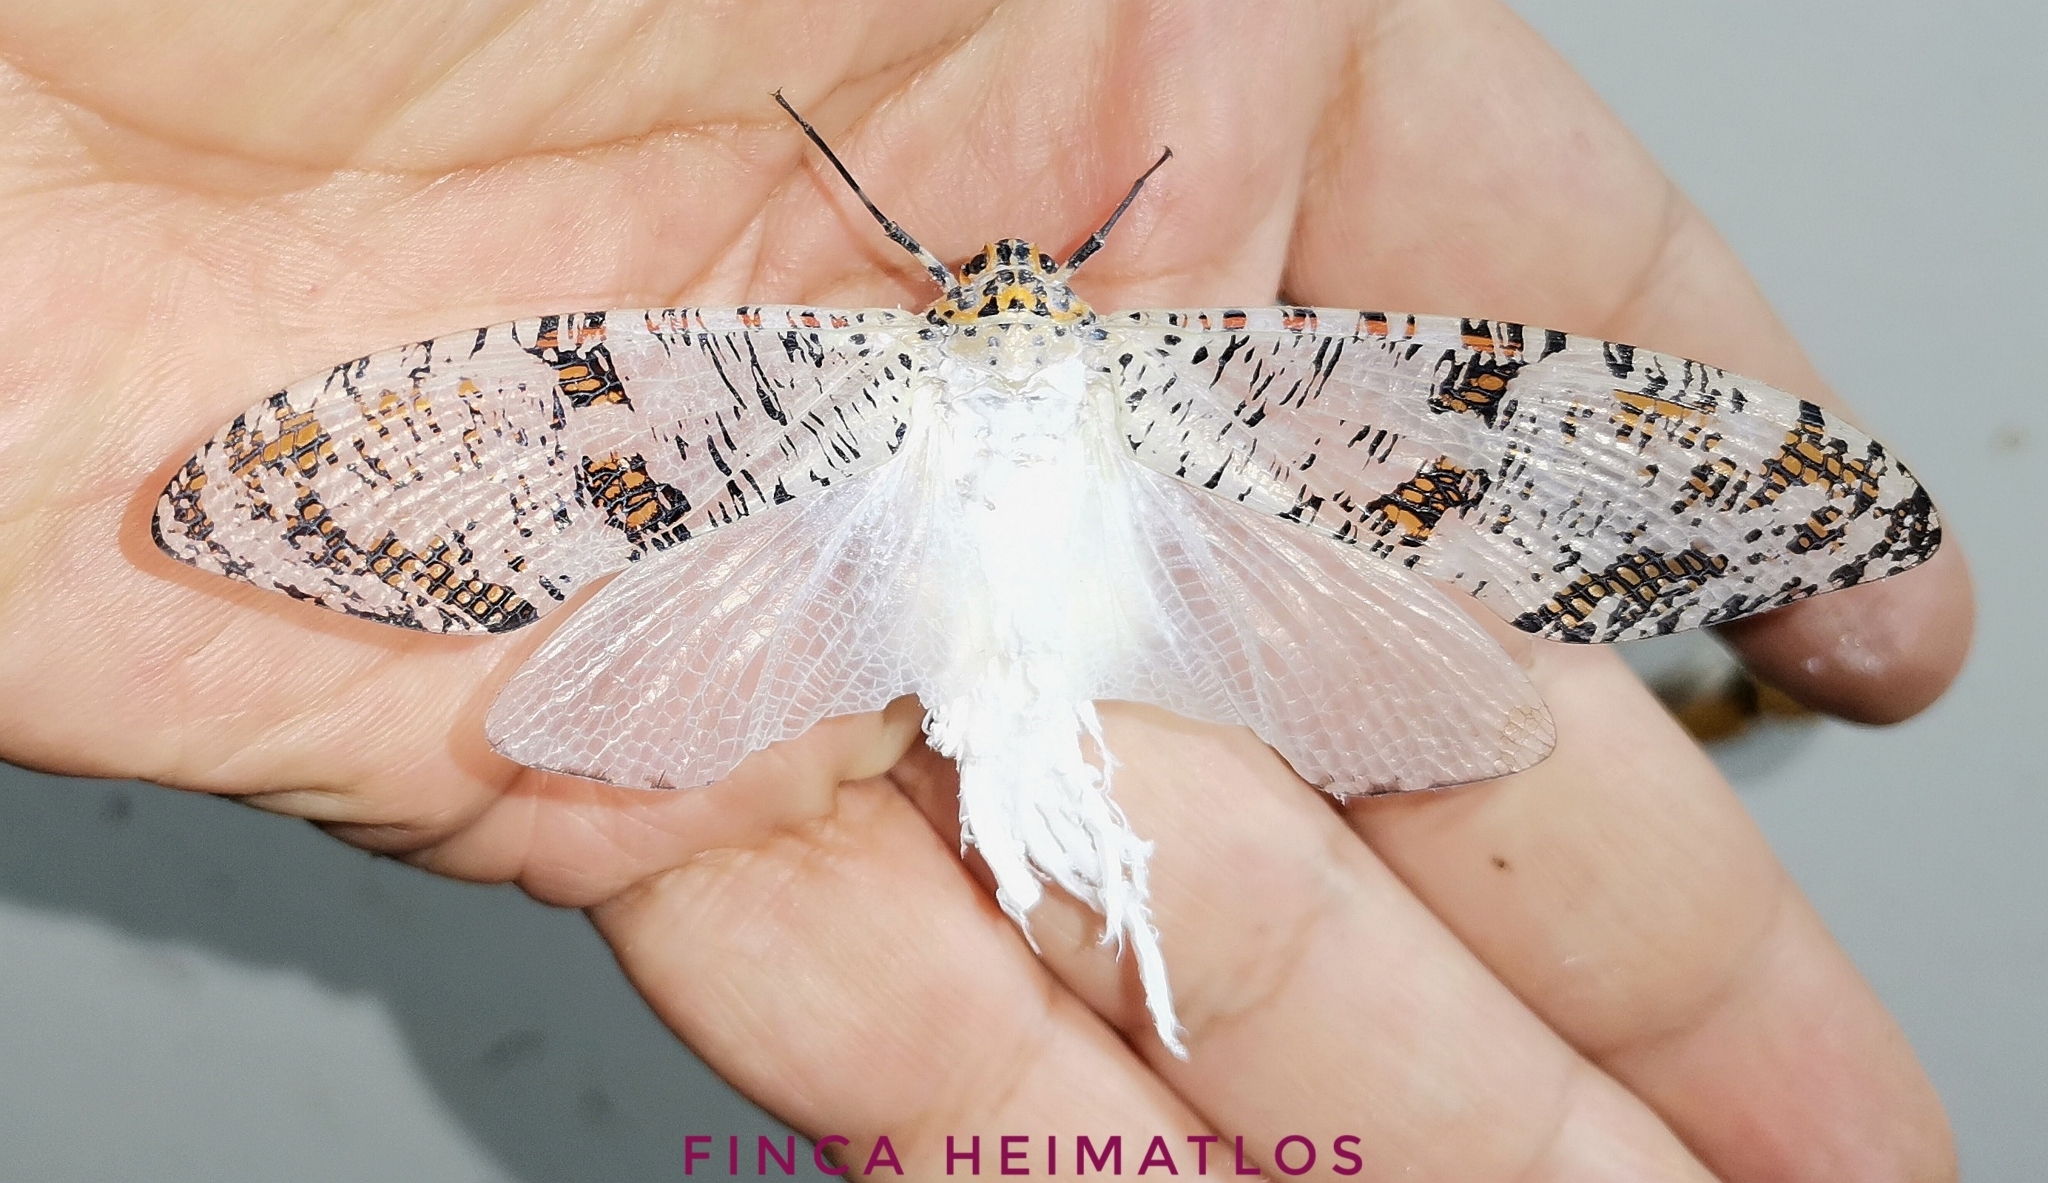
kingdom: Animalia
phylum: Arthropoda
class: Insecta
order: Hemiptera
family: Fulgoridae
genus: Phenax
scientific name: Phenax variegata
